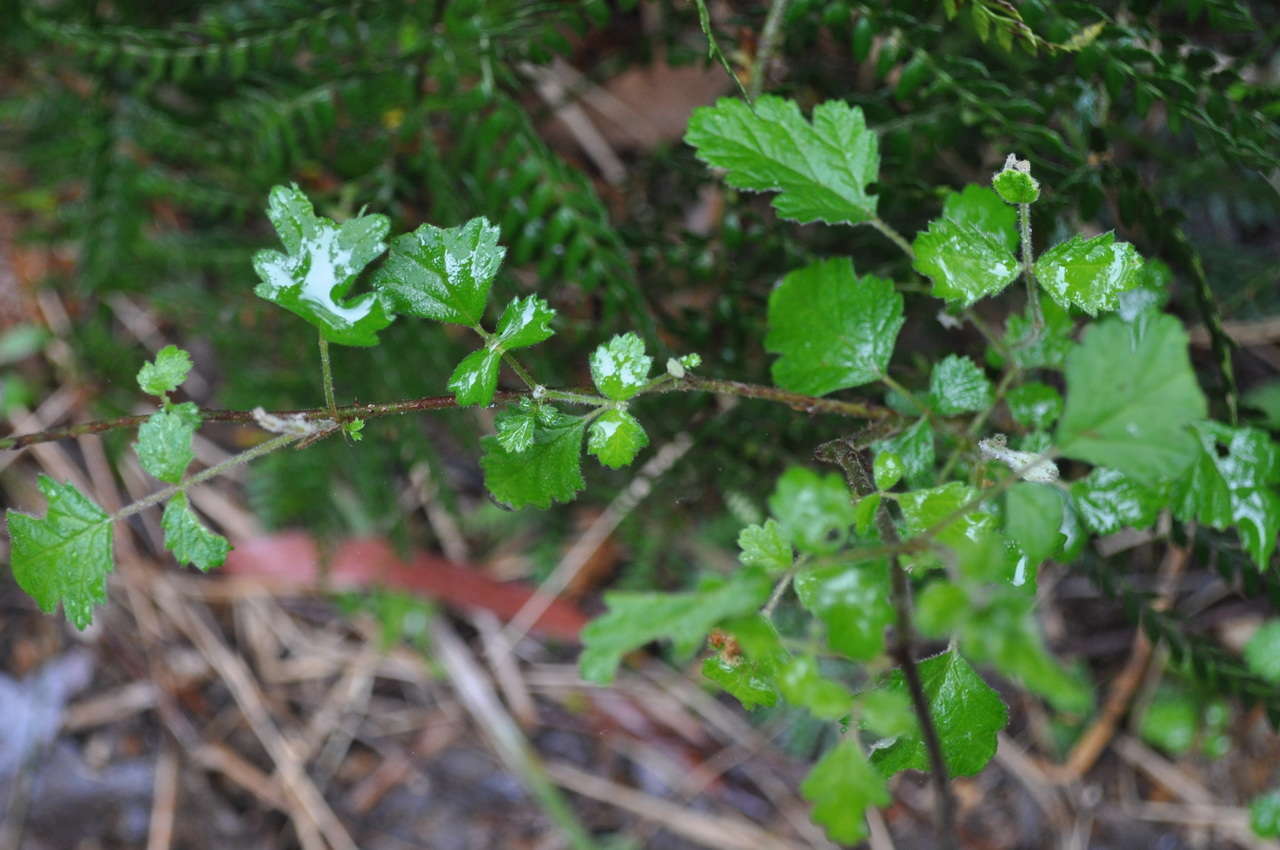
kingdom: Plantae
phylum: Tracheophyta
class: Magnoliopsida
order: Rosales
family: Rosaceae
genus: Rubus
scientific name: Rubus parvifolius
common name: Threeleaf blackberry
